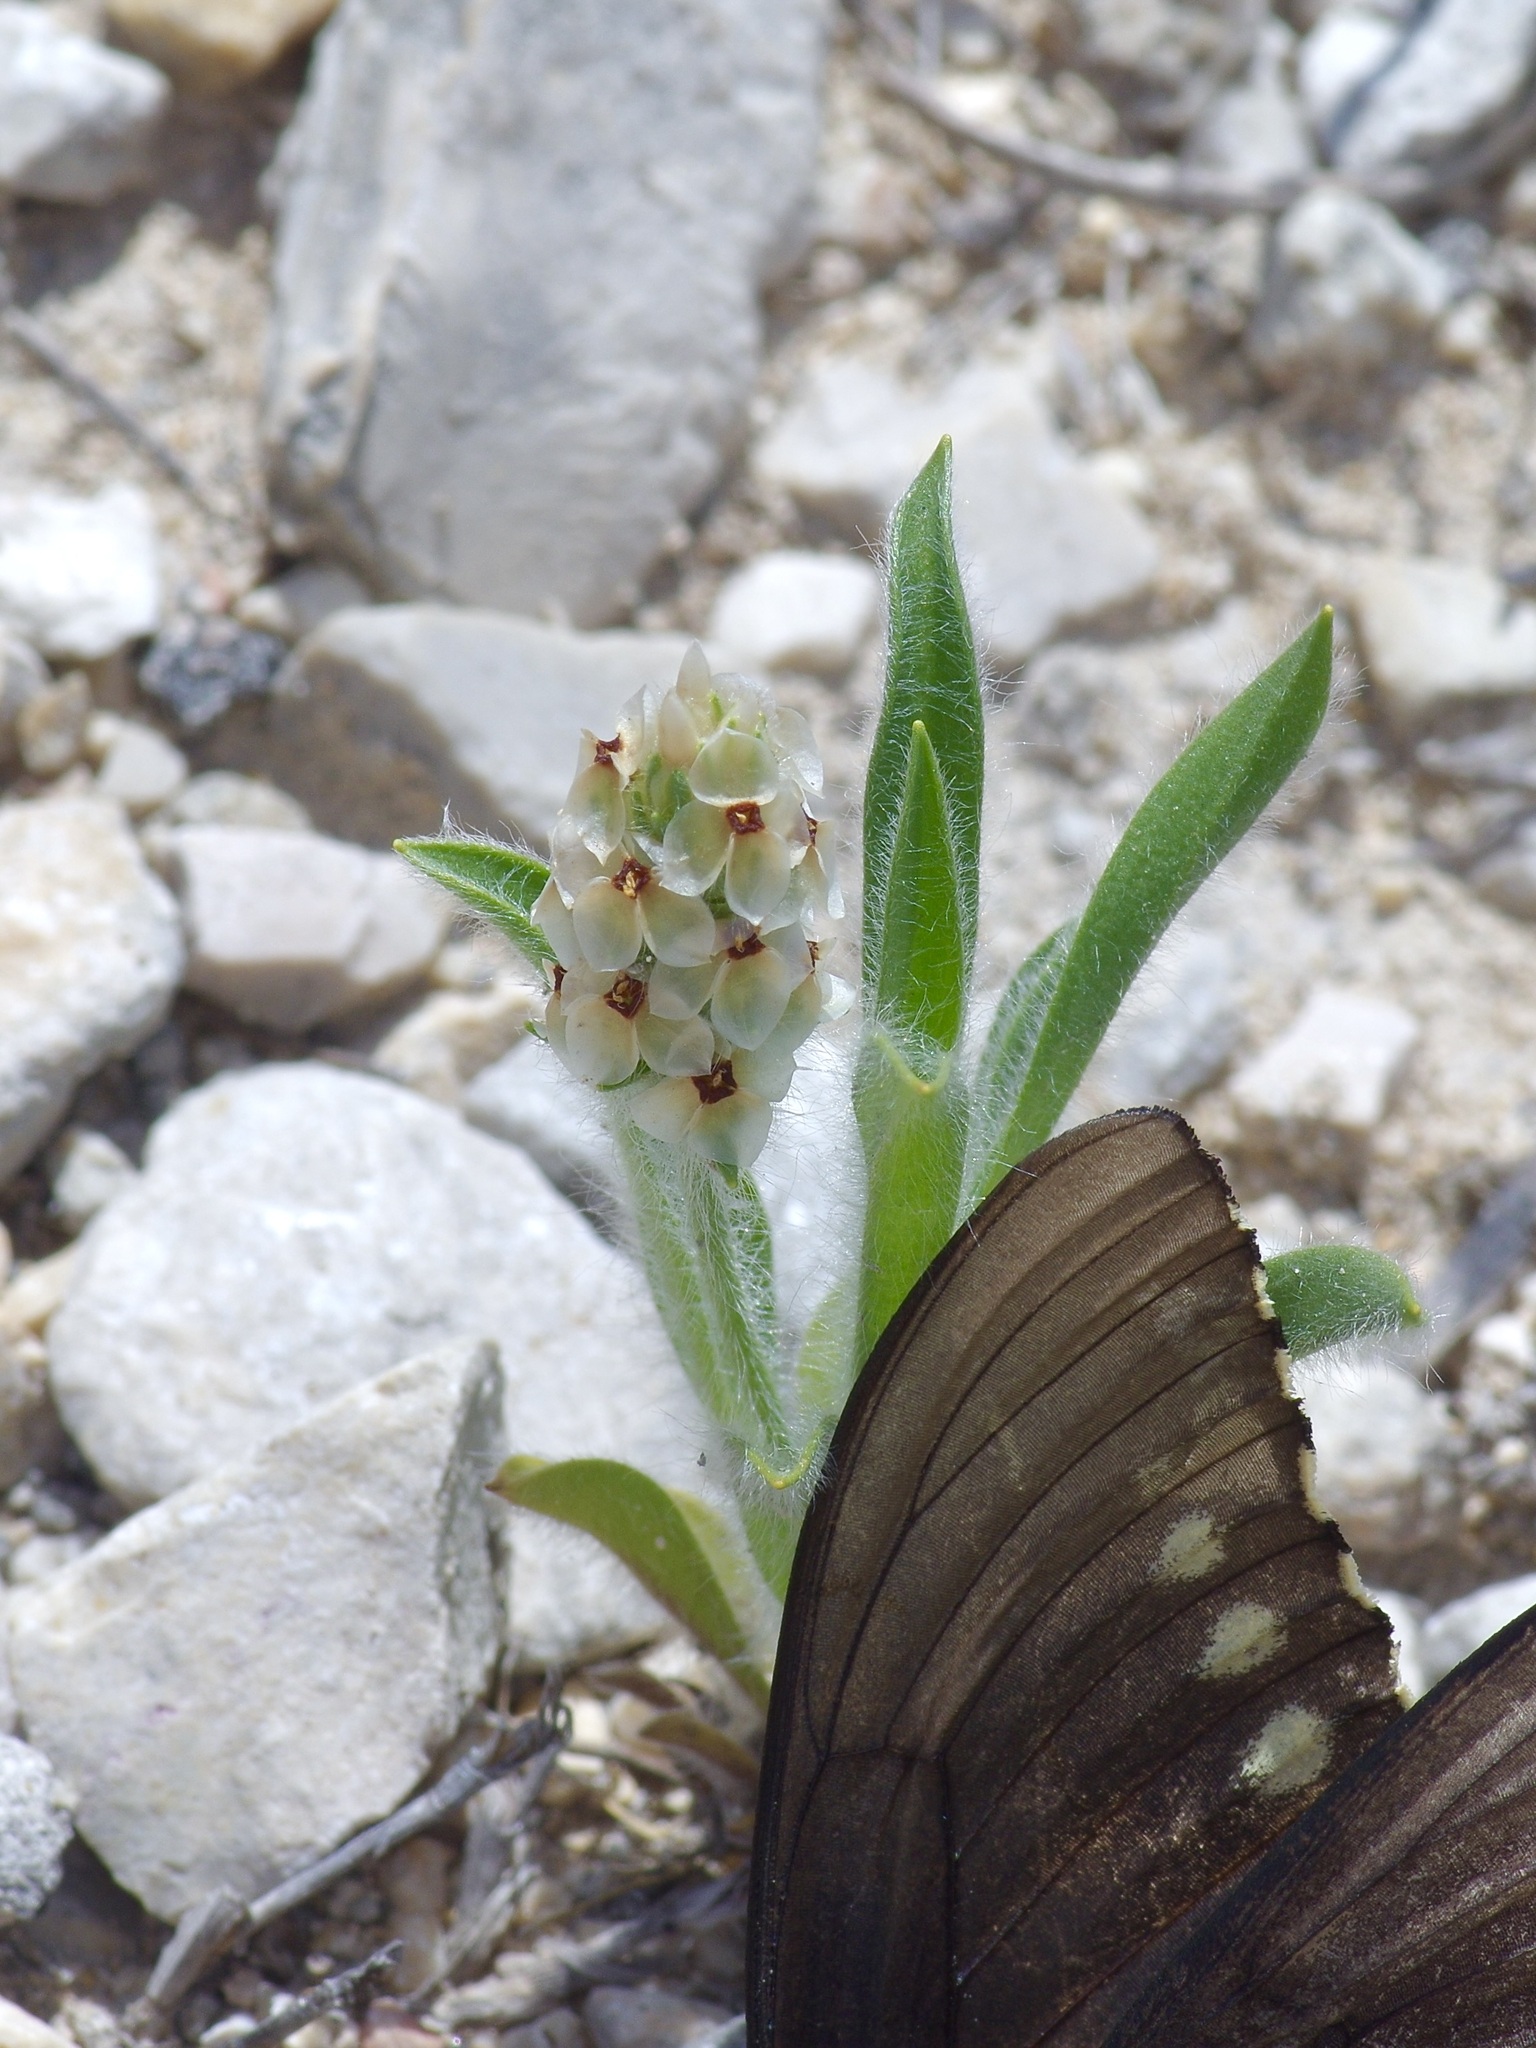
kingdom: Plantae
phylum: Tracheophyta
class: Magnoliopsida
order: Lamiales
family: Plantaginaceae
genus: Plantago
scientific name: Plantago helleri
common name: Heller's plantain
